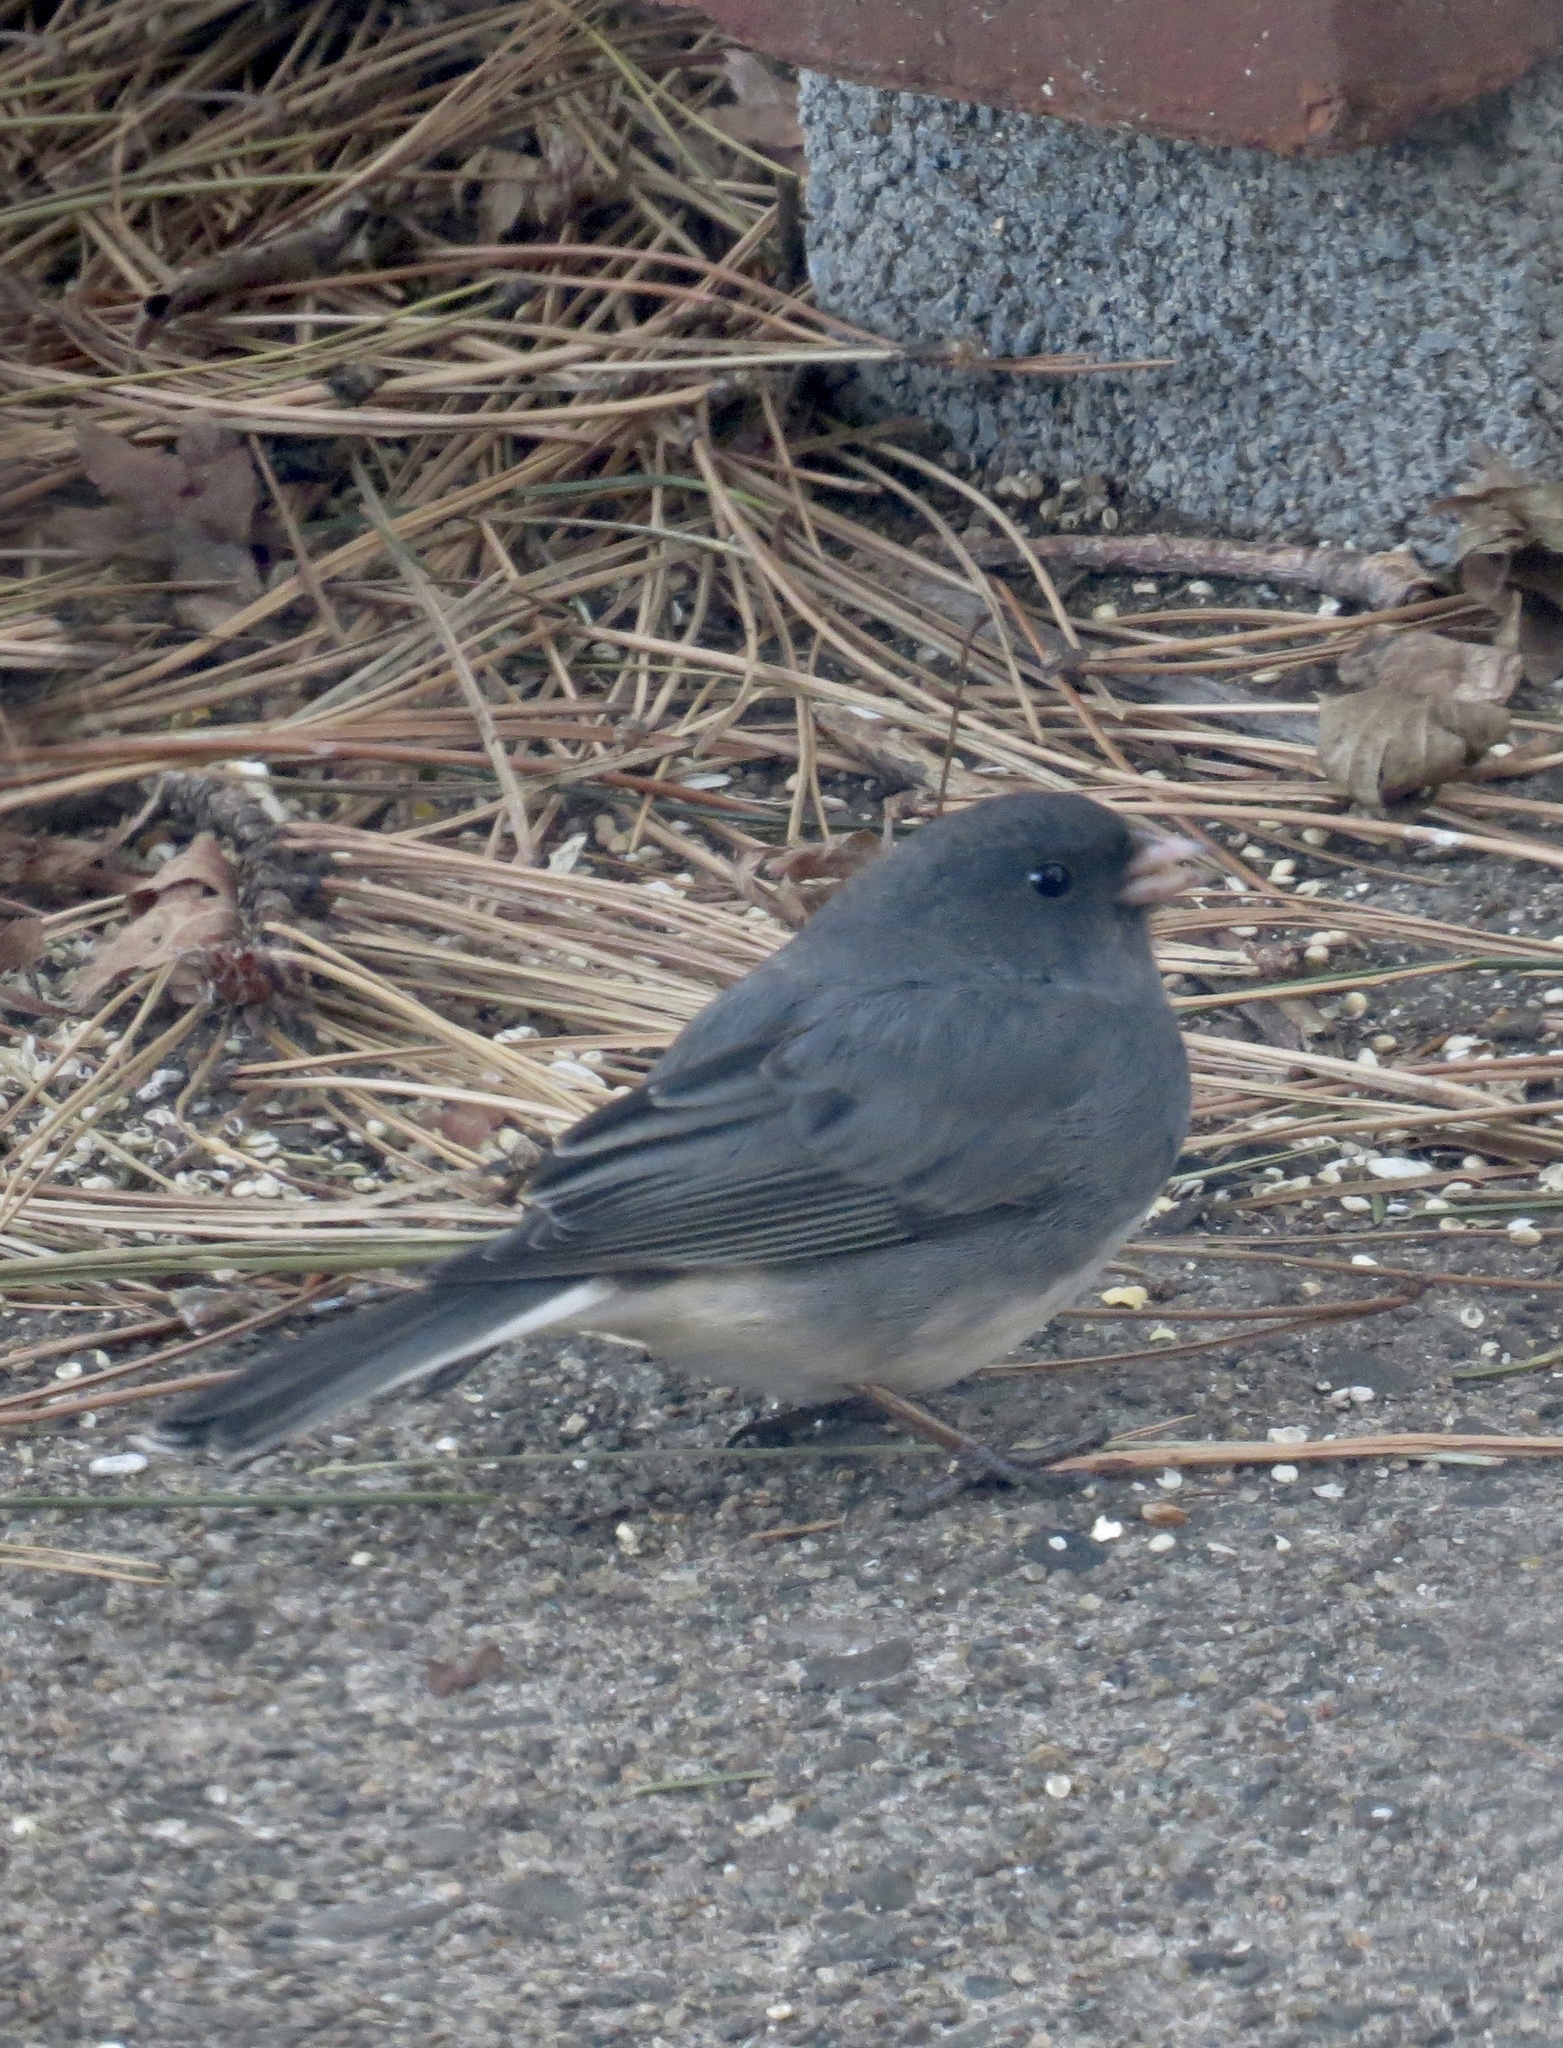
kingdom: Animalia
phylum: Chordata
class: Aves
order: Passeriformes
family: Passerellidae
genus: Junco
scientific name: Junco hyemalis
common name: Dark-eyed junco
